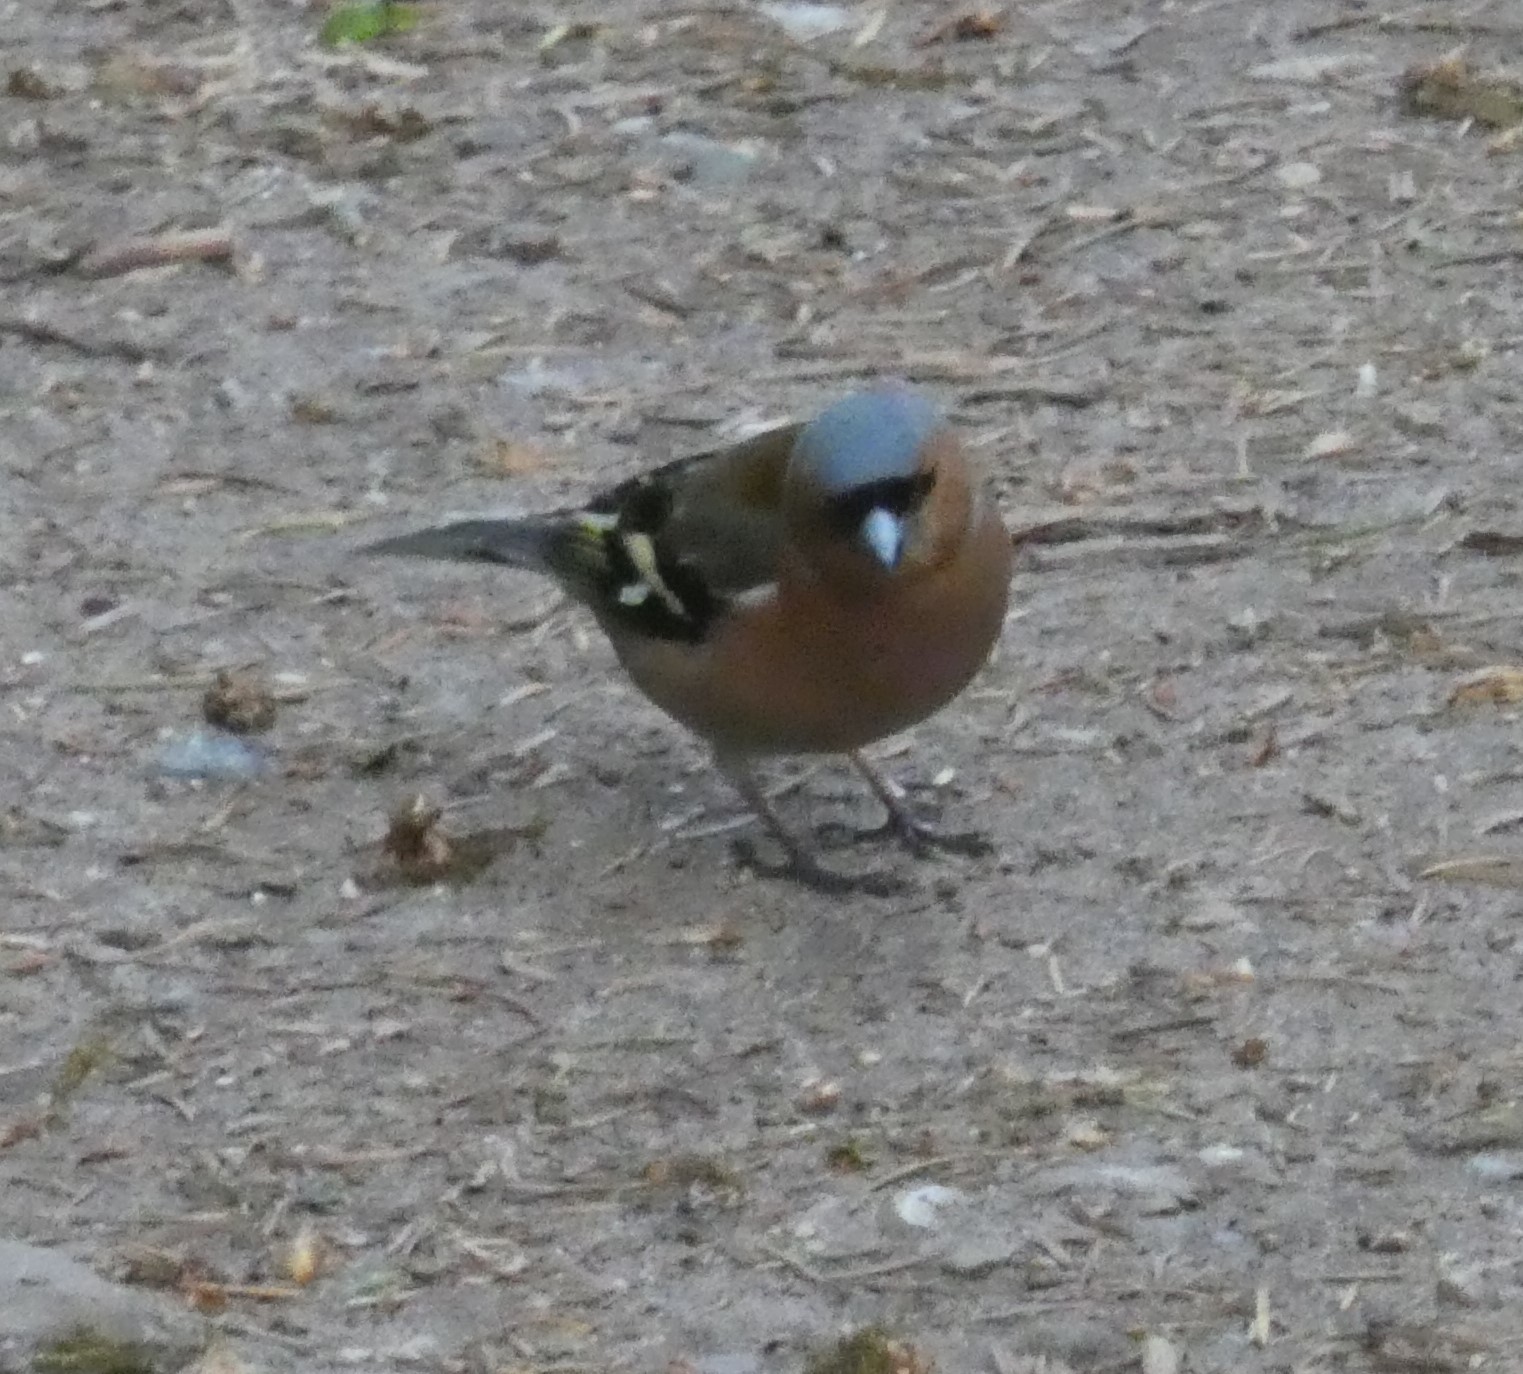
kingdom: Animalia
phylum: Chordata
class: Aves
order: Passeriformes
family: Fringillidae
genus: Fringilla
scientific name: Fringilla coelebs
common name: Common chaffinch
